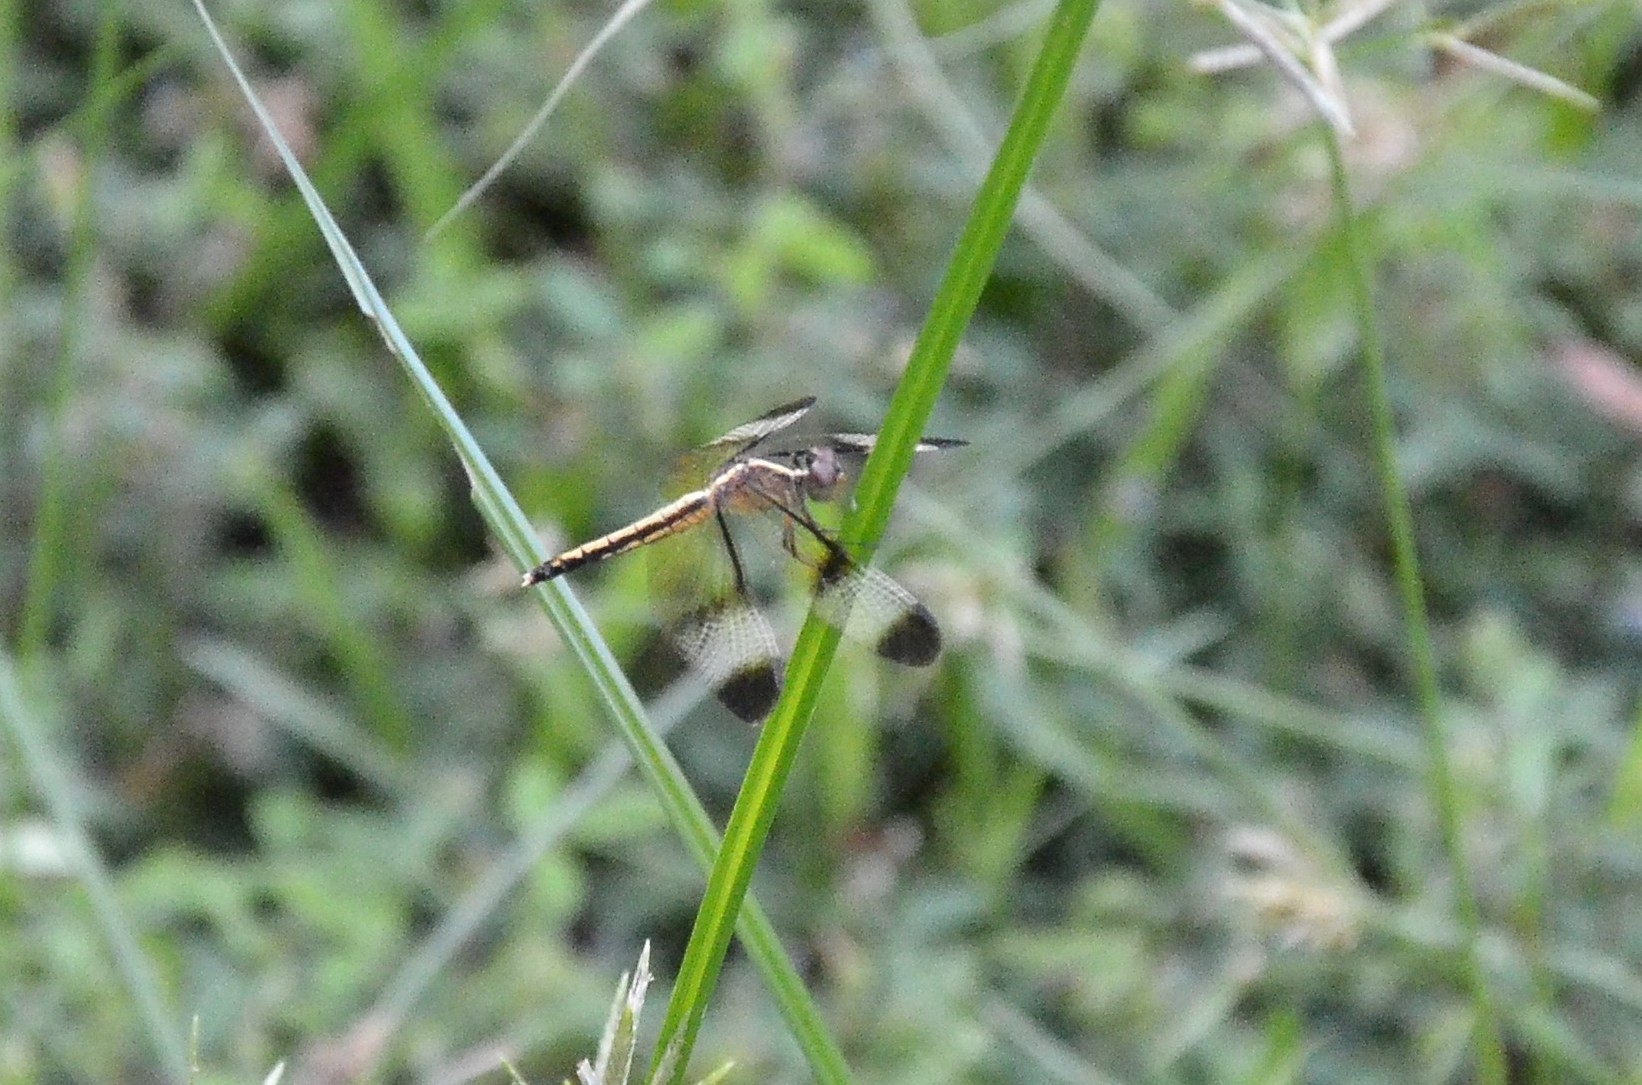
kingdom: Animalia
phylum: Arthropoda
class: Insecta
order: Odonata
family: Libellulidae
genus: Neurothemis
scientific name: Neurothemis tullia
